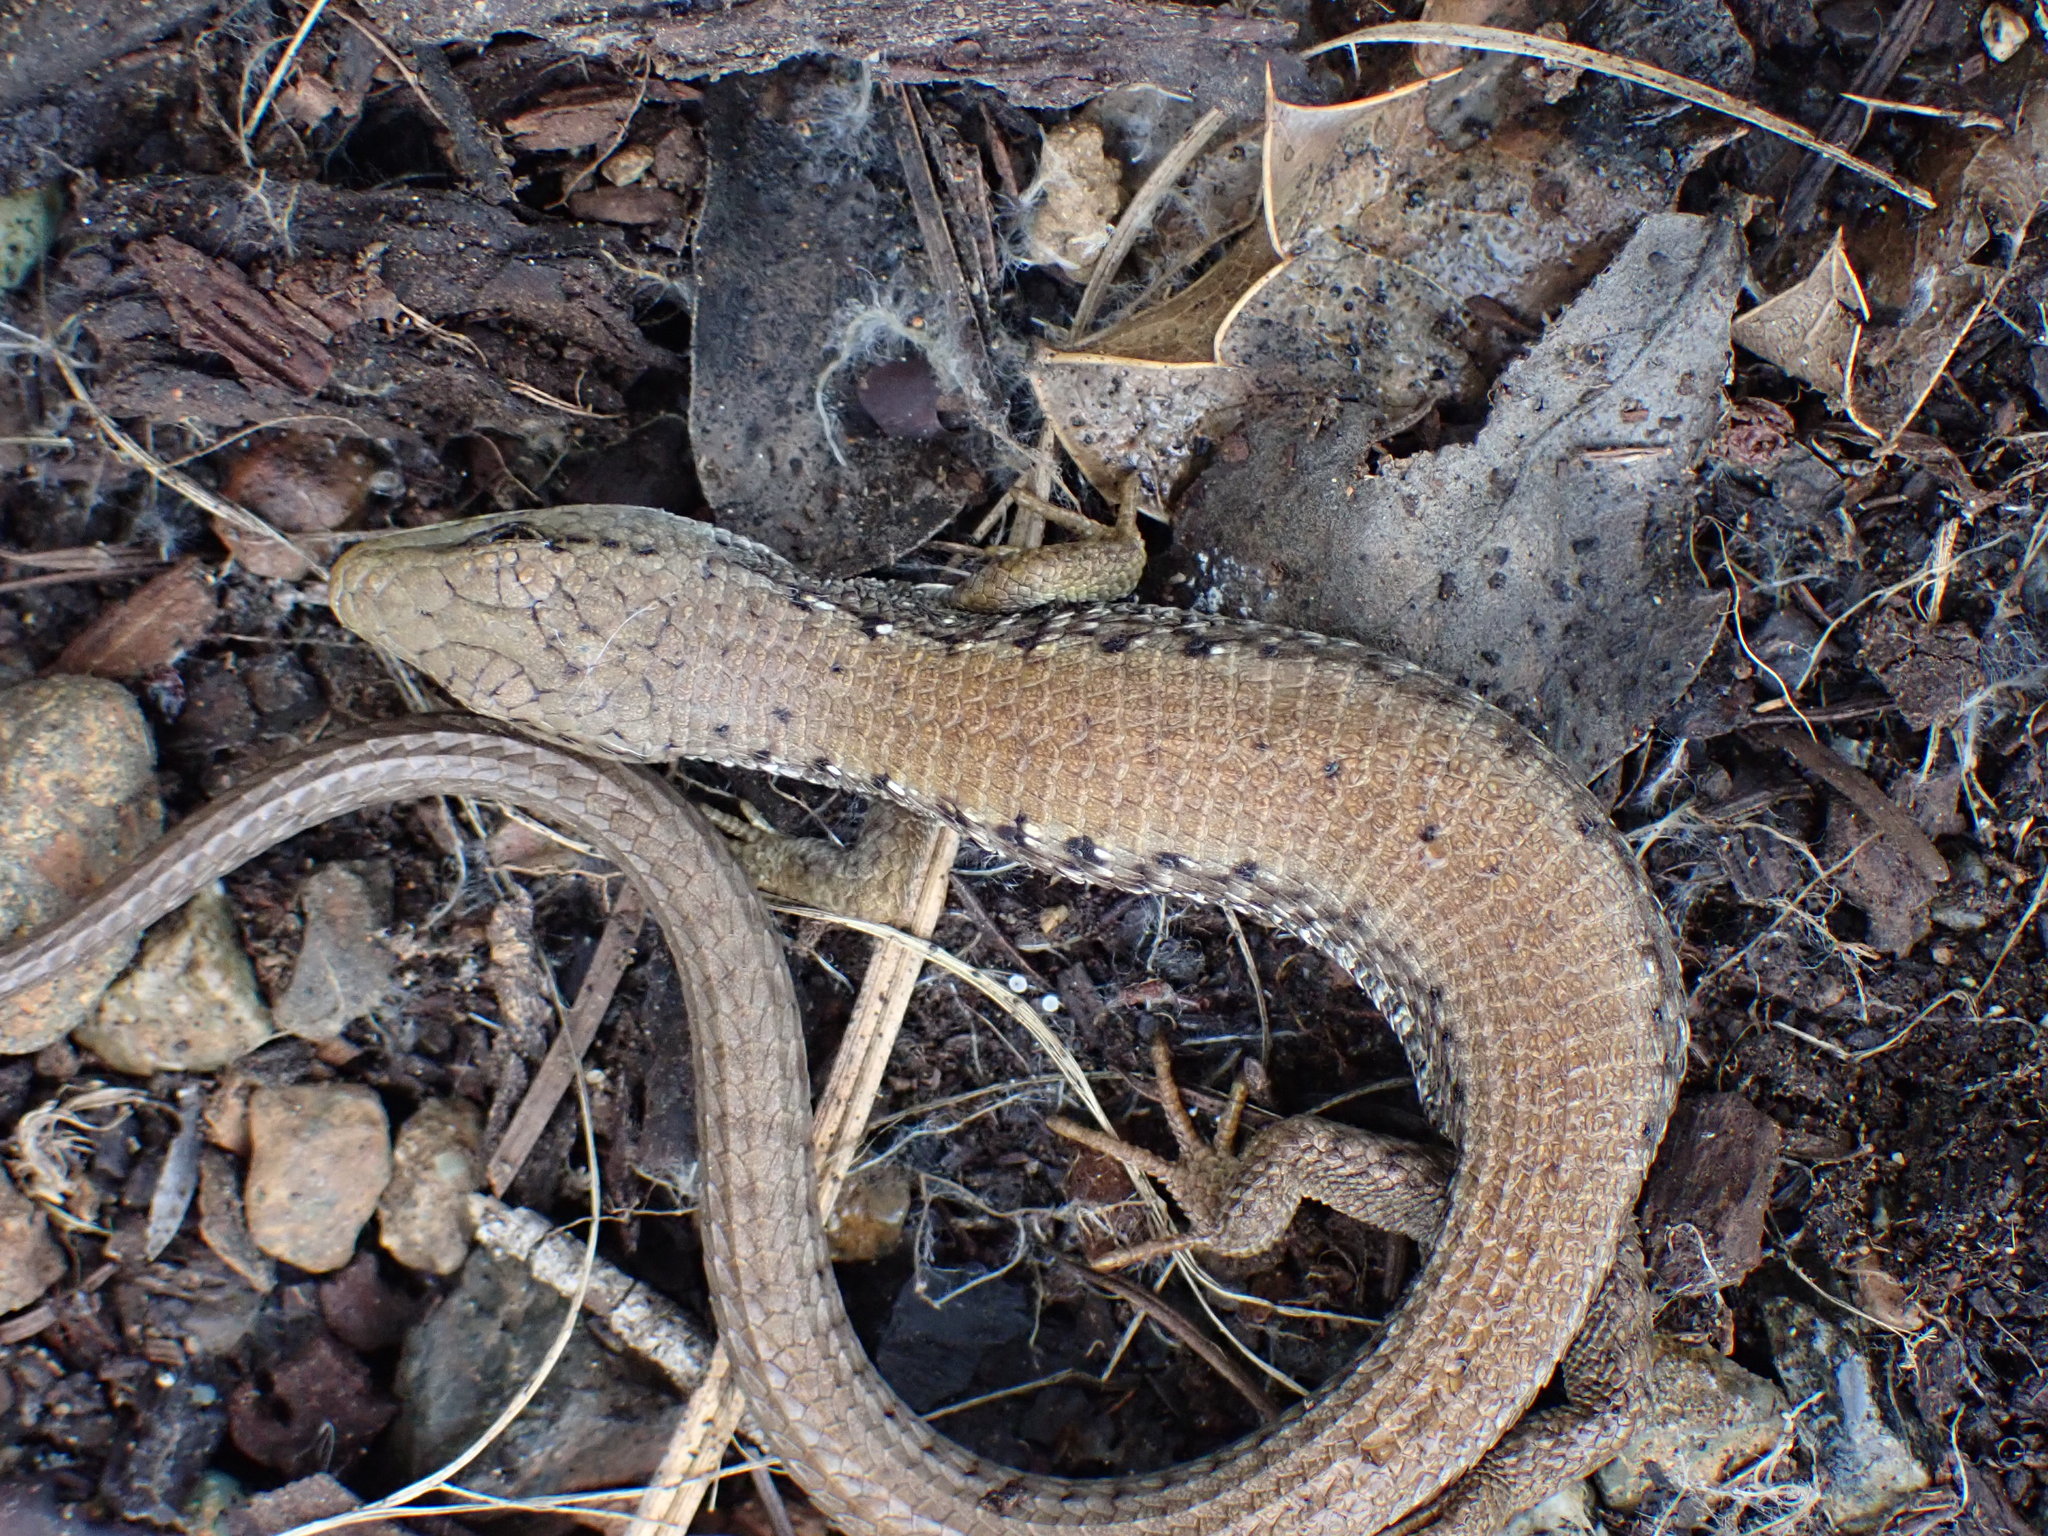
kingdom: Animalia
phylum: Chordata
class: Squamata
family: Anguidae
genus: Elgaria
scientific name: Elgaria coerulea
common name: Northern alligator lizard
